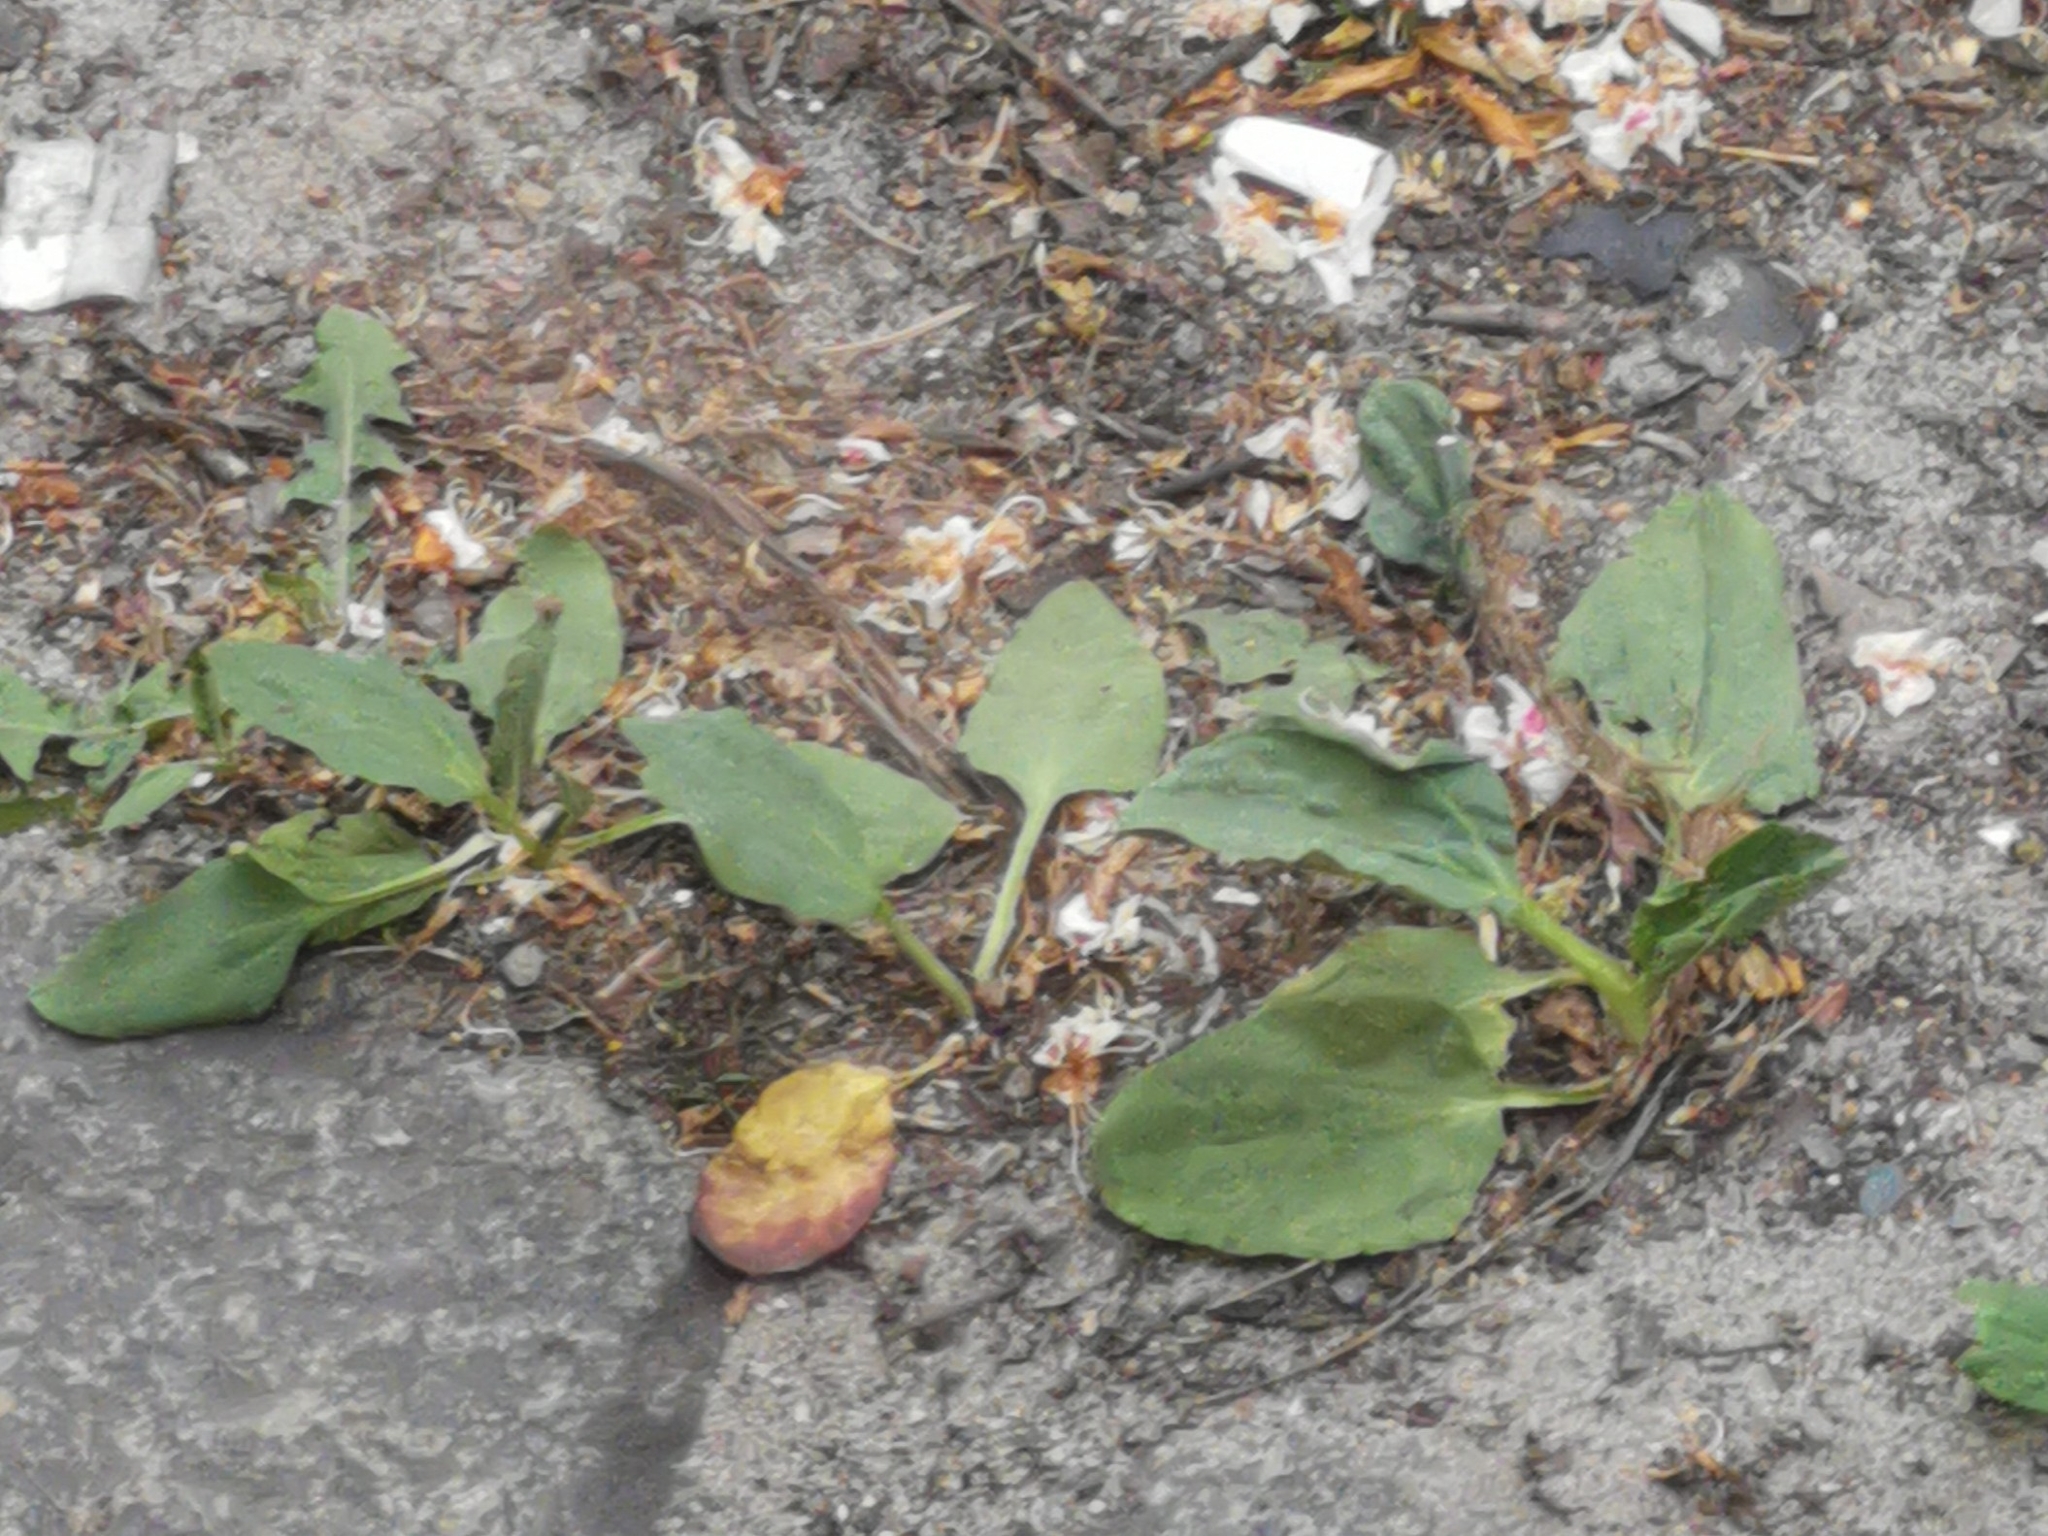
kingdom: Plantae
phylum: Tracheophyta
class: Magnoliopsida
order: Lamiales
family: Plantaginaceae
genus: Plantago
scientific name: Plantago major
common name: Common plantain
